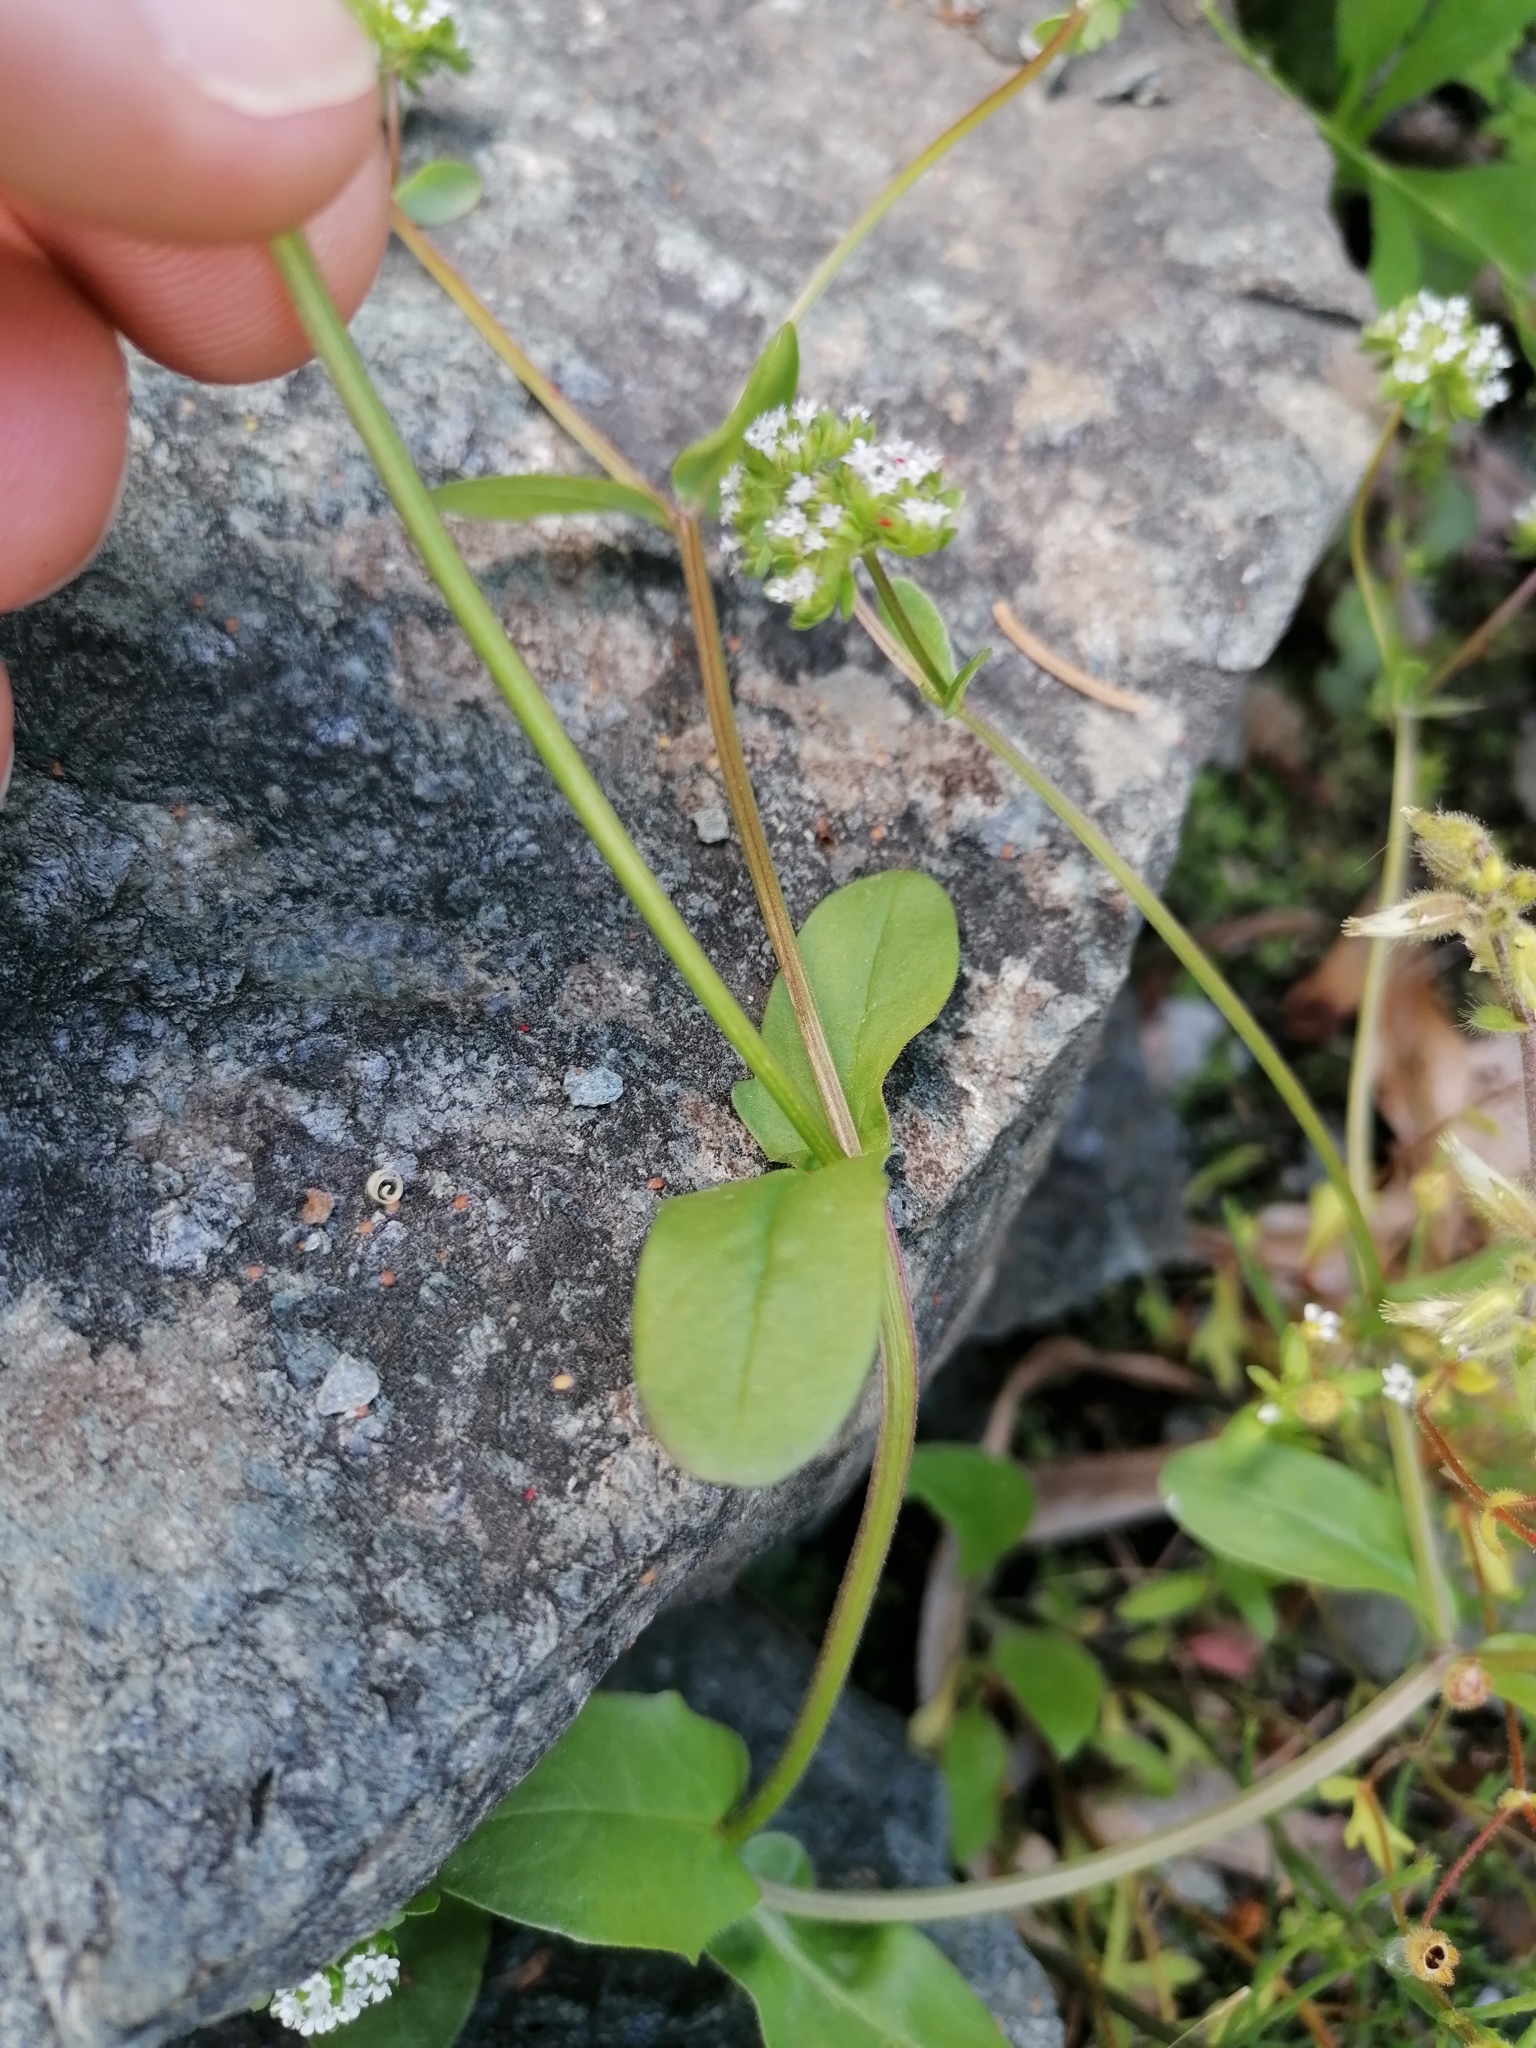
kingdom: Plantae
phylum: Tracheophyta
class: Magnoliopsida
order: Dipsacales
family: Caprifoliaceae
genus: Valerianella
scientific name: Valerianella locusta
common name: Common cornsalad
